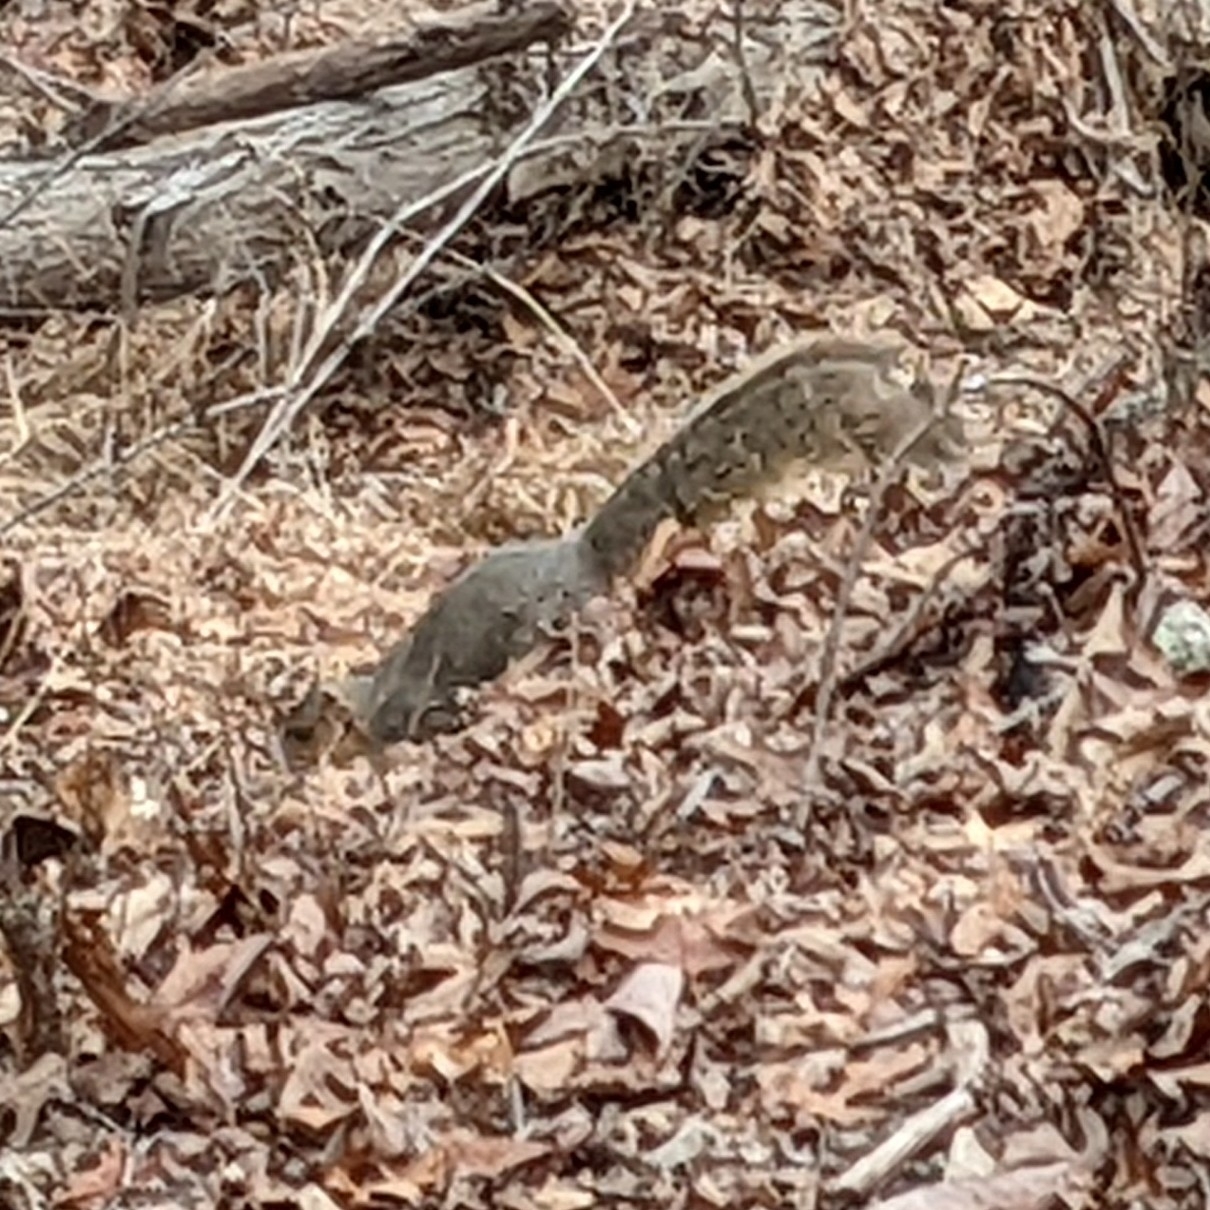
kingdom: Animalia
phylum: Chordata
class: Mammalia
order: Rodentia
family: Sciuridae
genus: Sciurus
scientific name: Sciurus carolinensis
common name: Eastern gray squirrel
